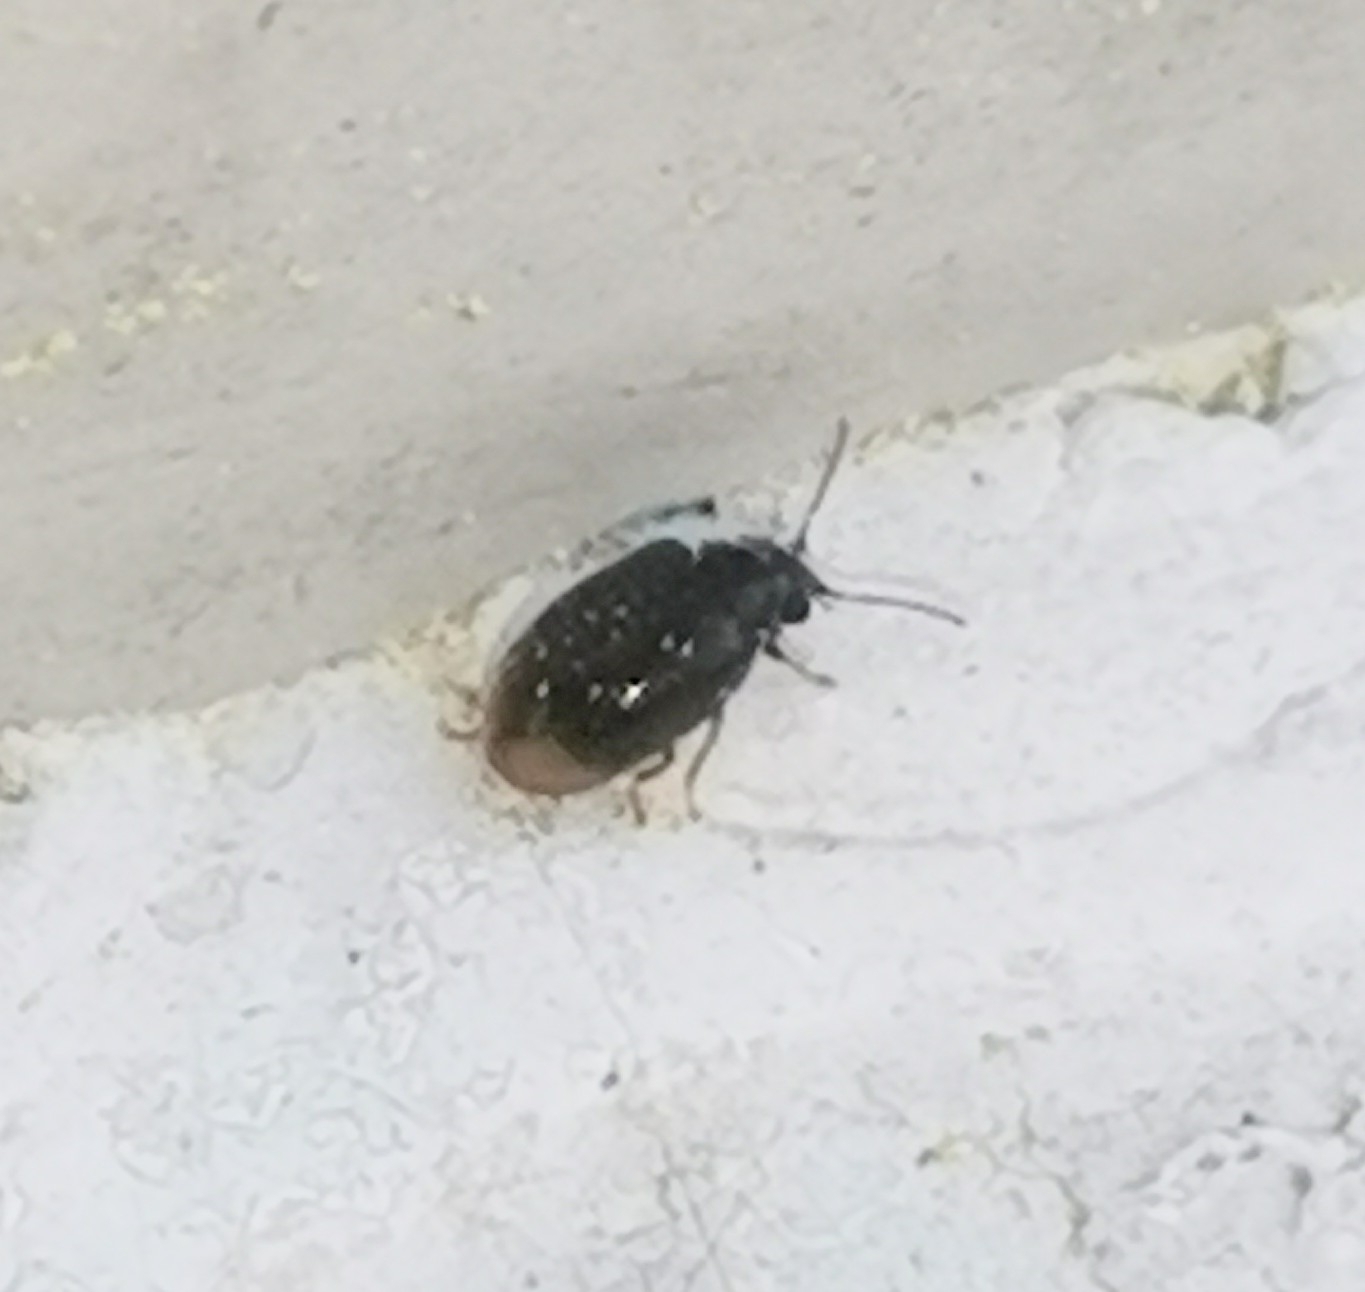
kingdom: Animalia
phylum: Arthropoda
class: Insecta
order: Coleoptera
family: Scirtidae
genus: Cyphon
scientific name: Cyphon padi
